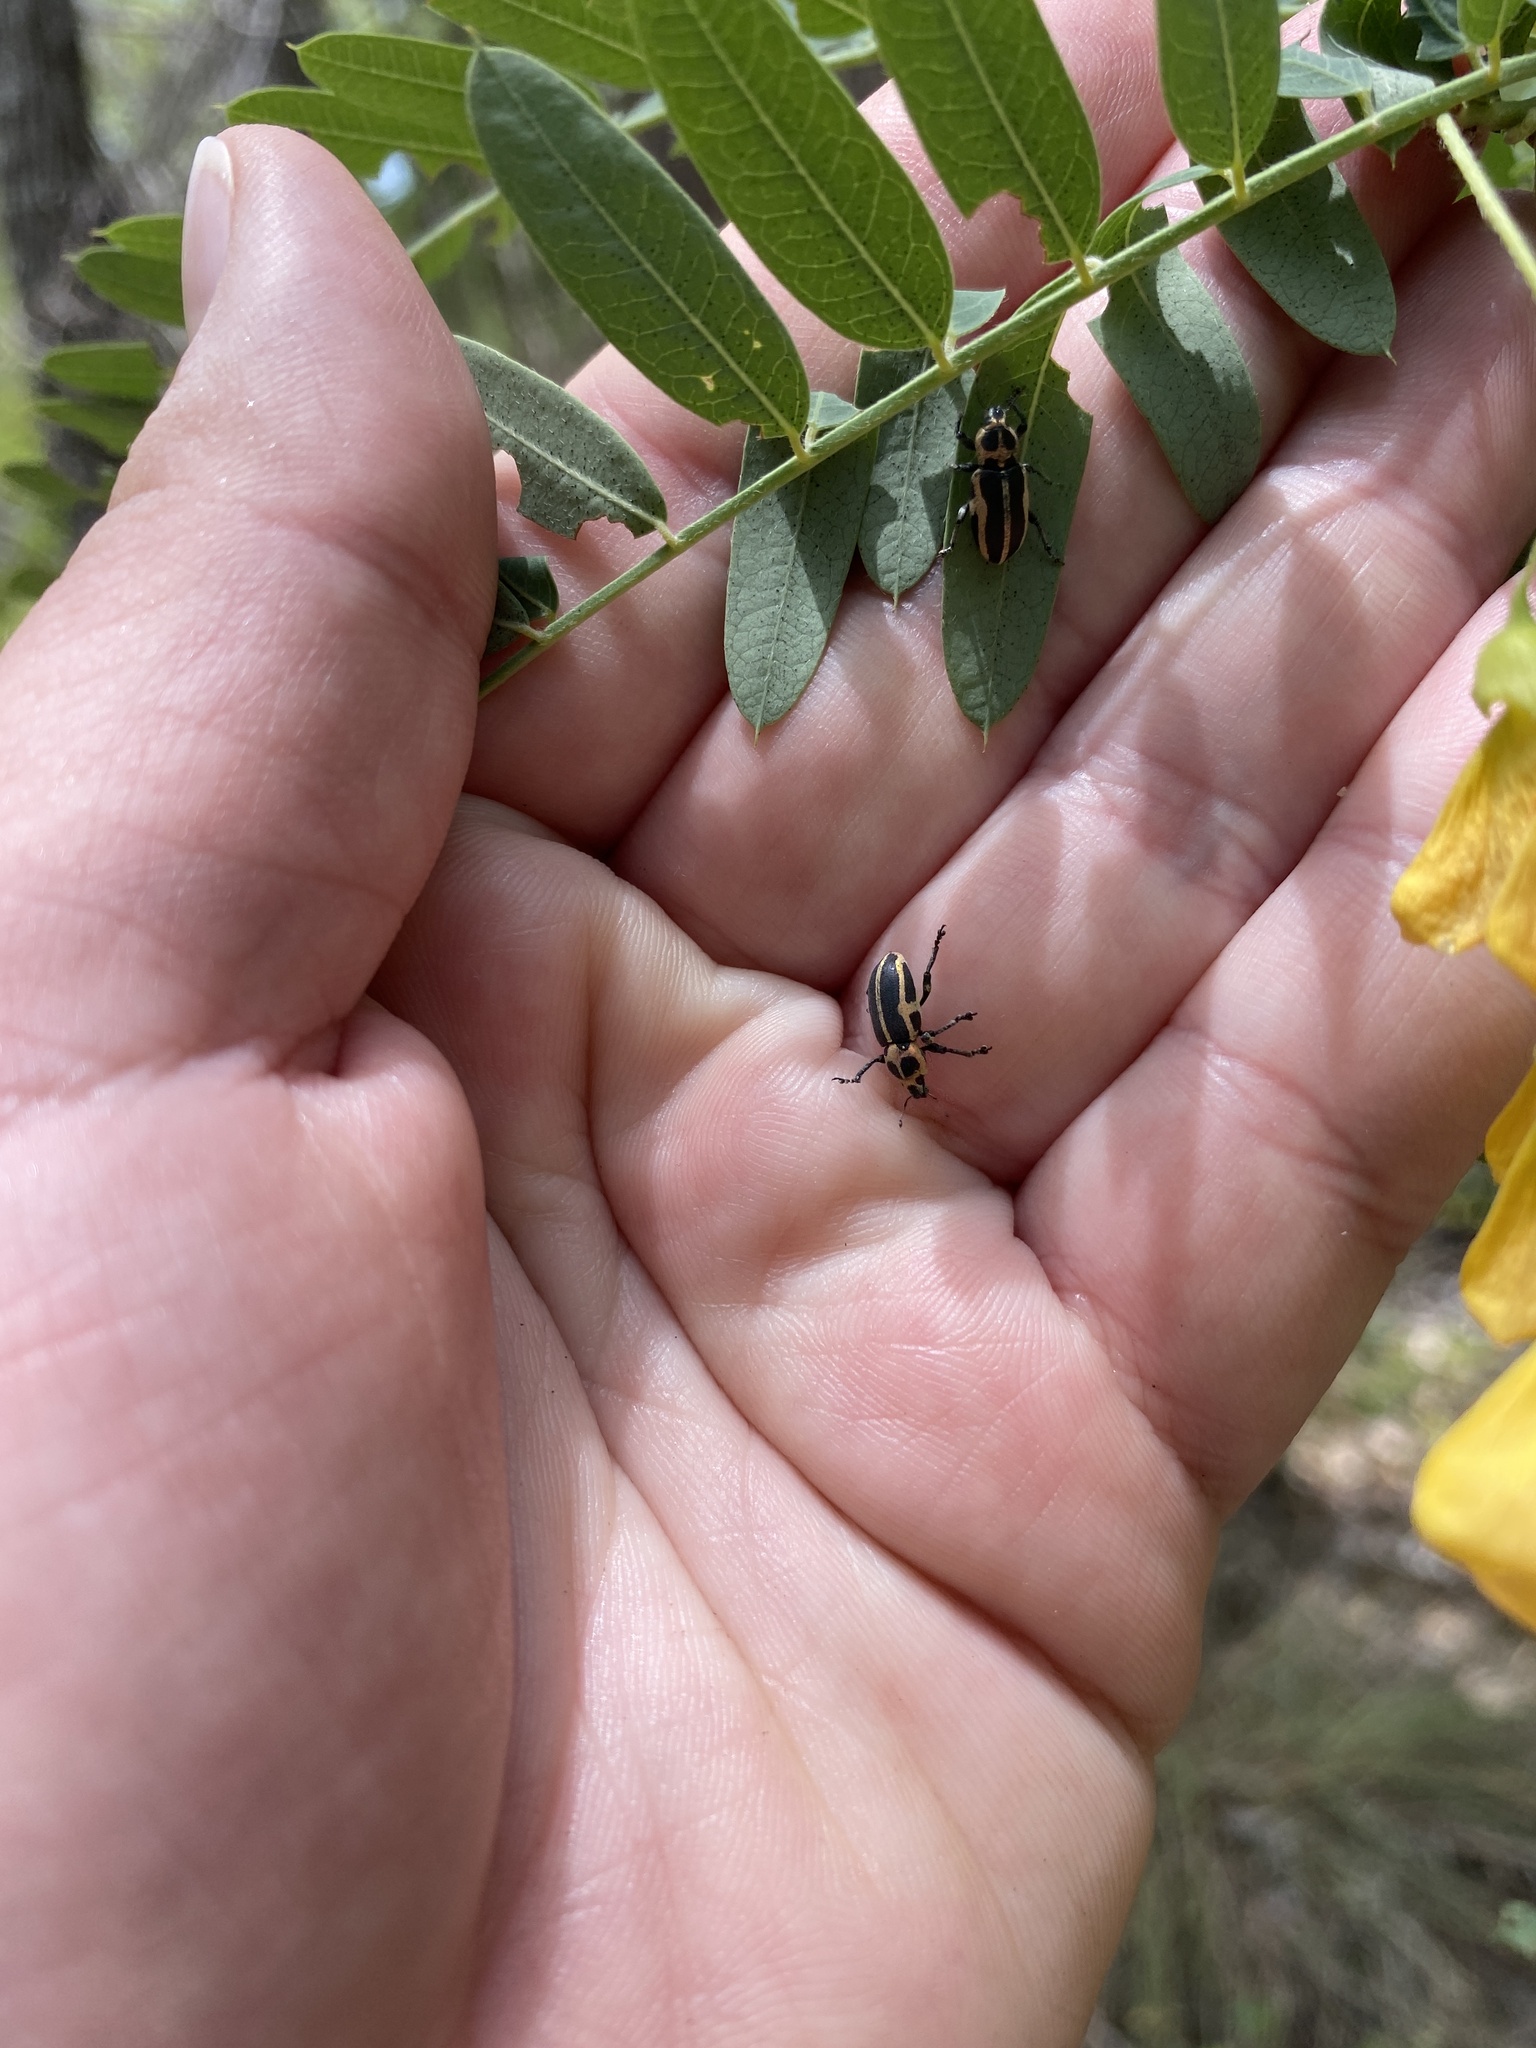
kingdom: Animalia
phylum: Arthropoda
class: Insecta
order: Coleoptera
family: Curculionidae
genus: Eudiagogus
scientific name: Eudiagogus pulcher
